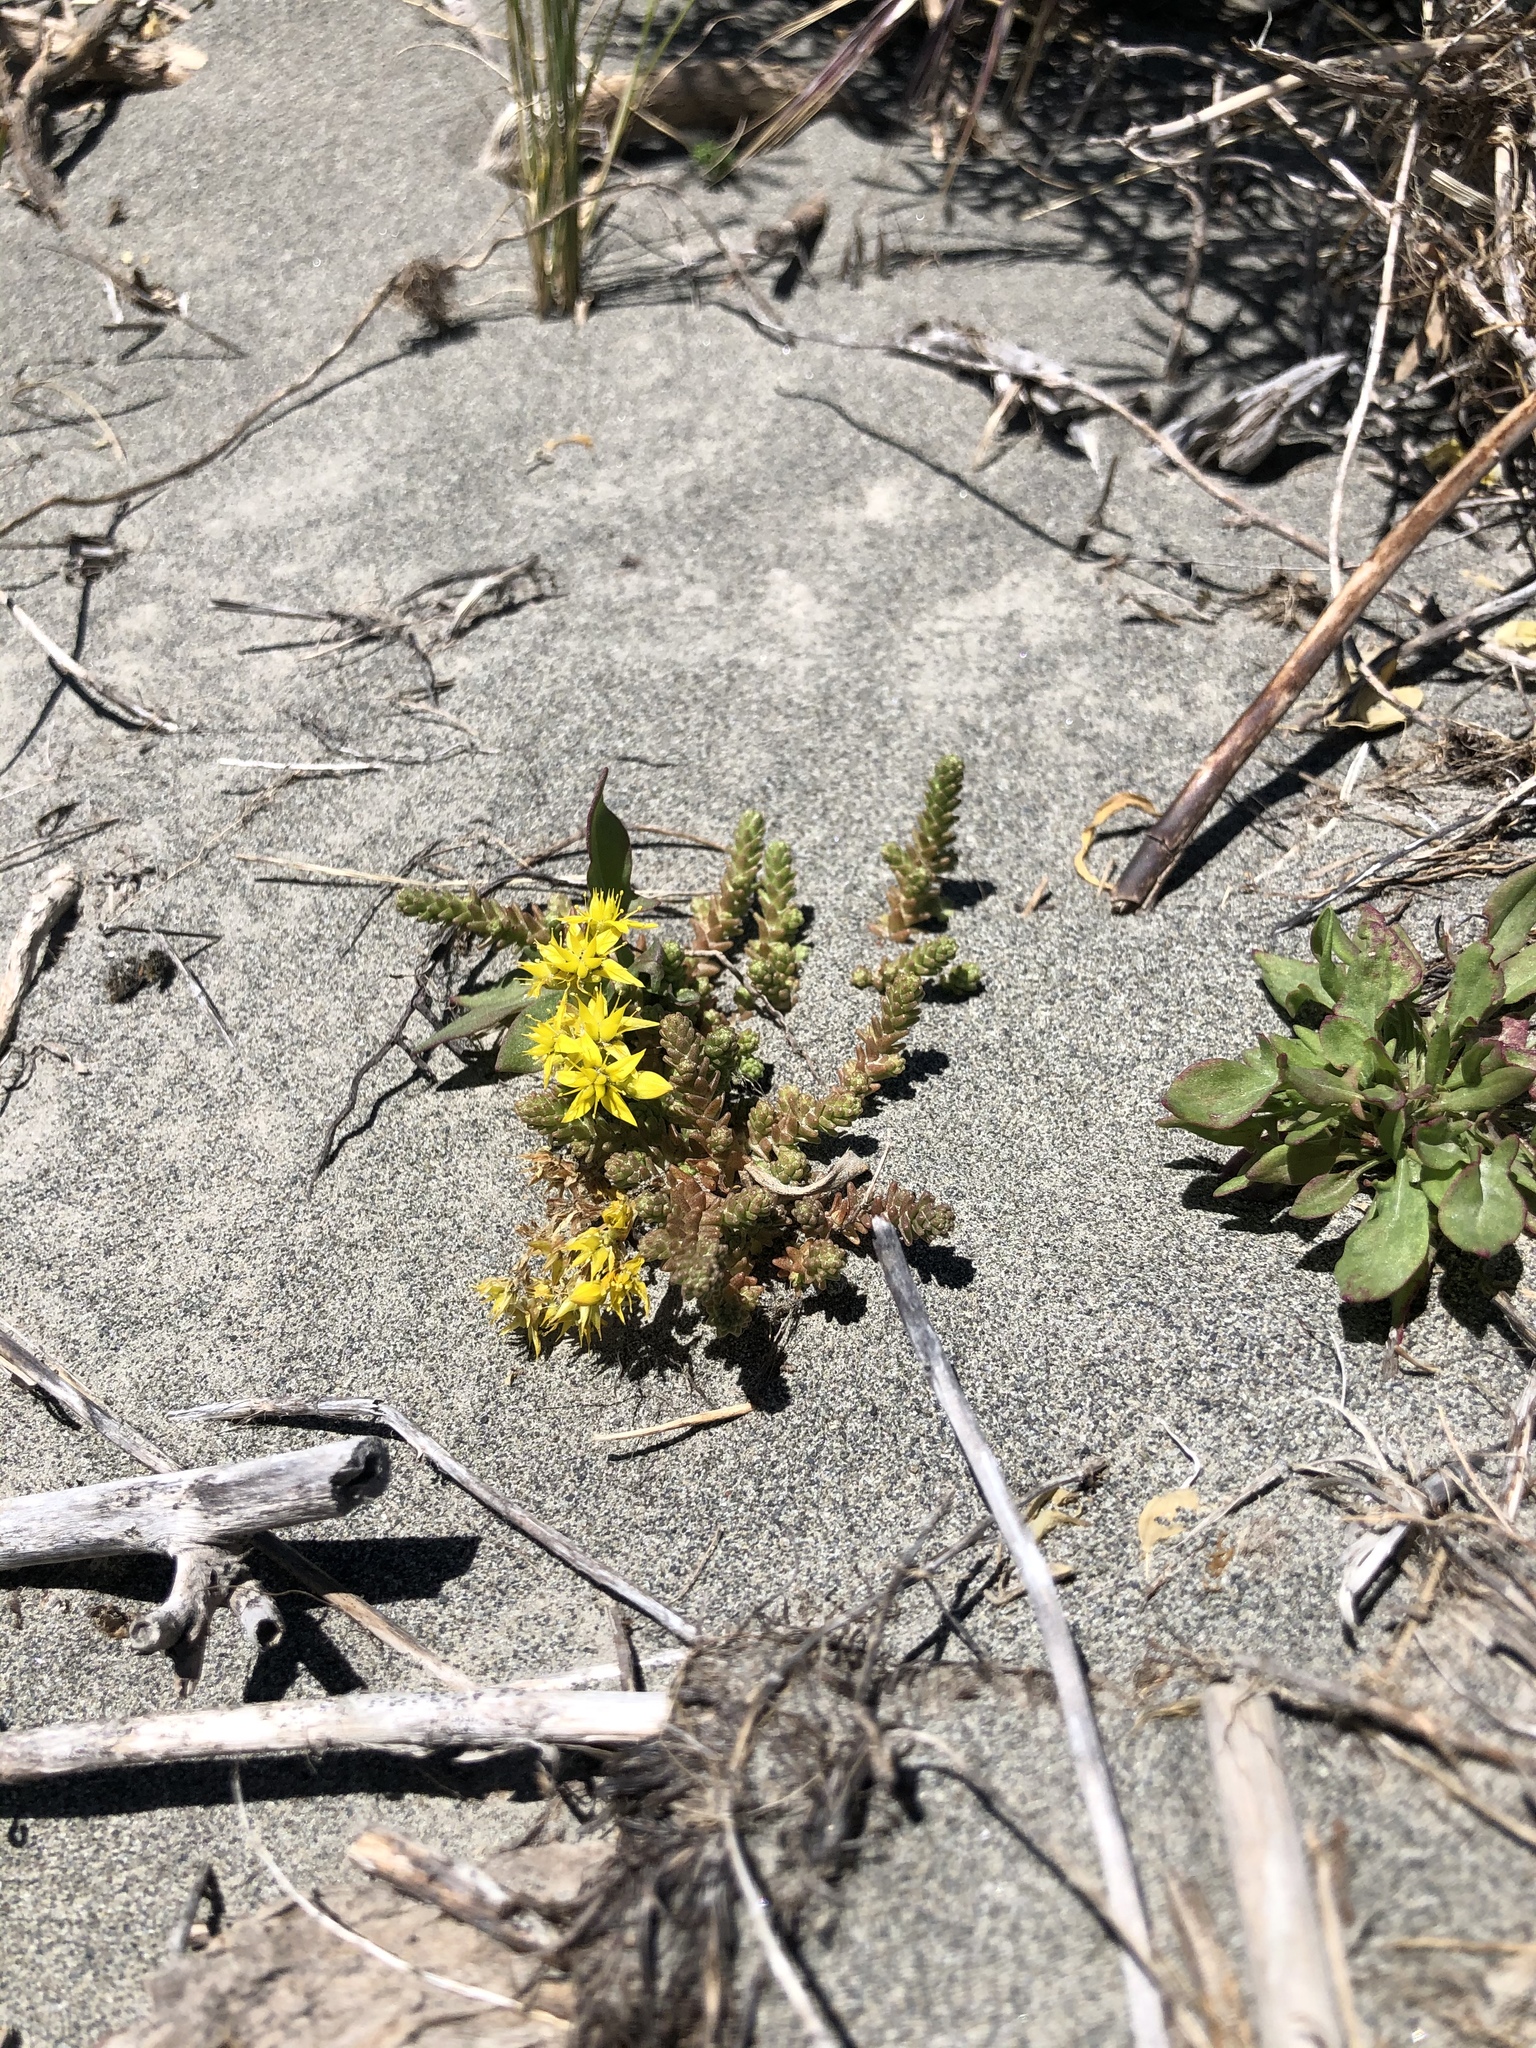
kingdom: Plantae
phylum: Tracheophyta
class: Magnoliopsida
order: Saxifragales
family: Crassulaceae
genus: Sedum
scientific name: Sedum acre
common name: Biting stonecrop
